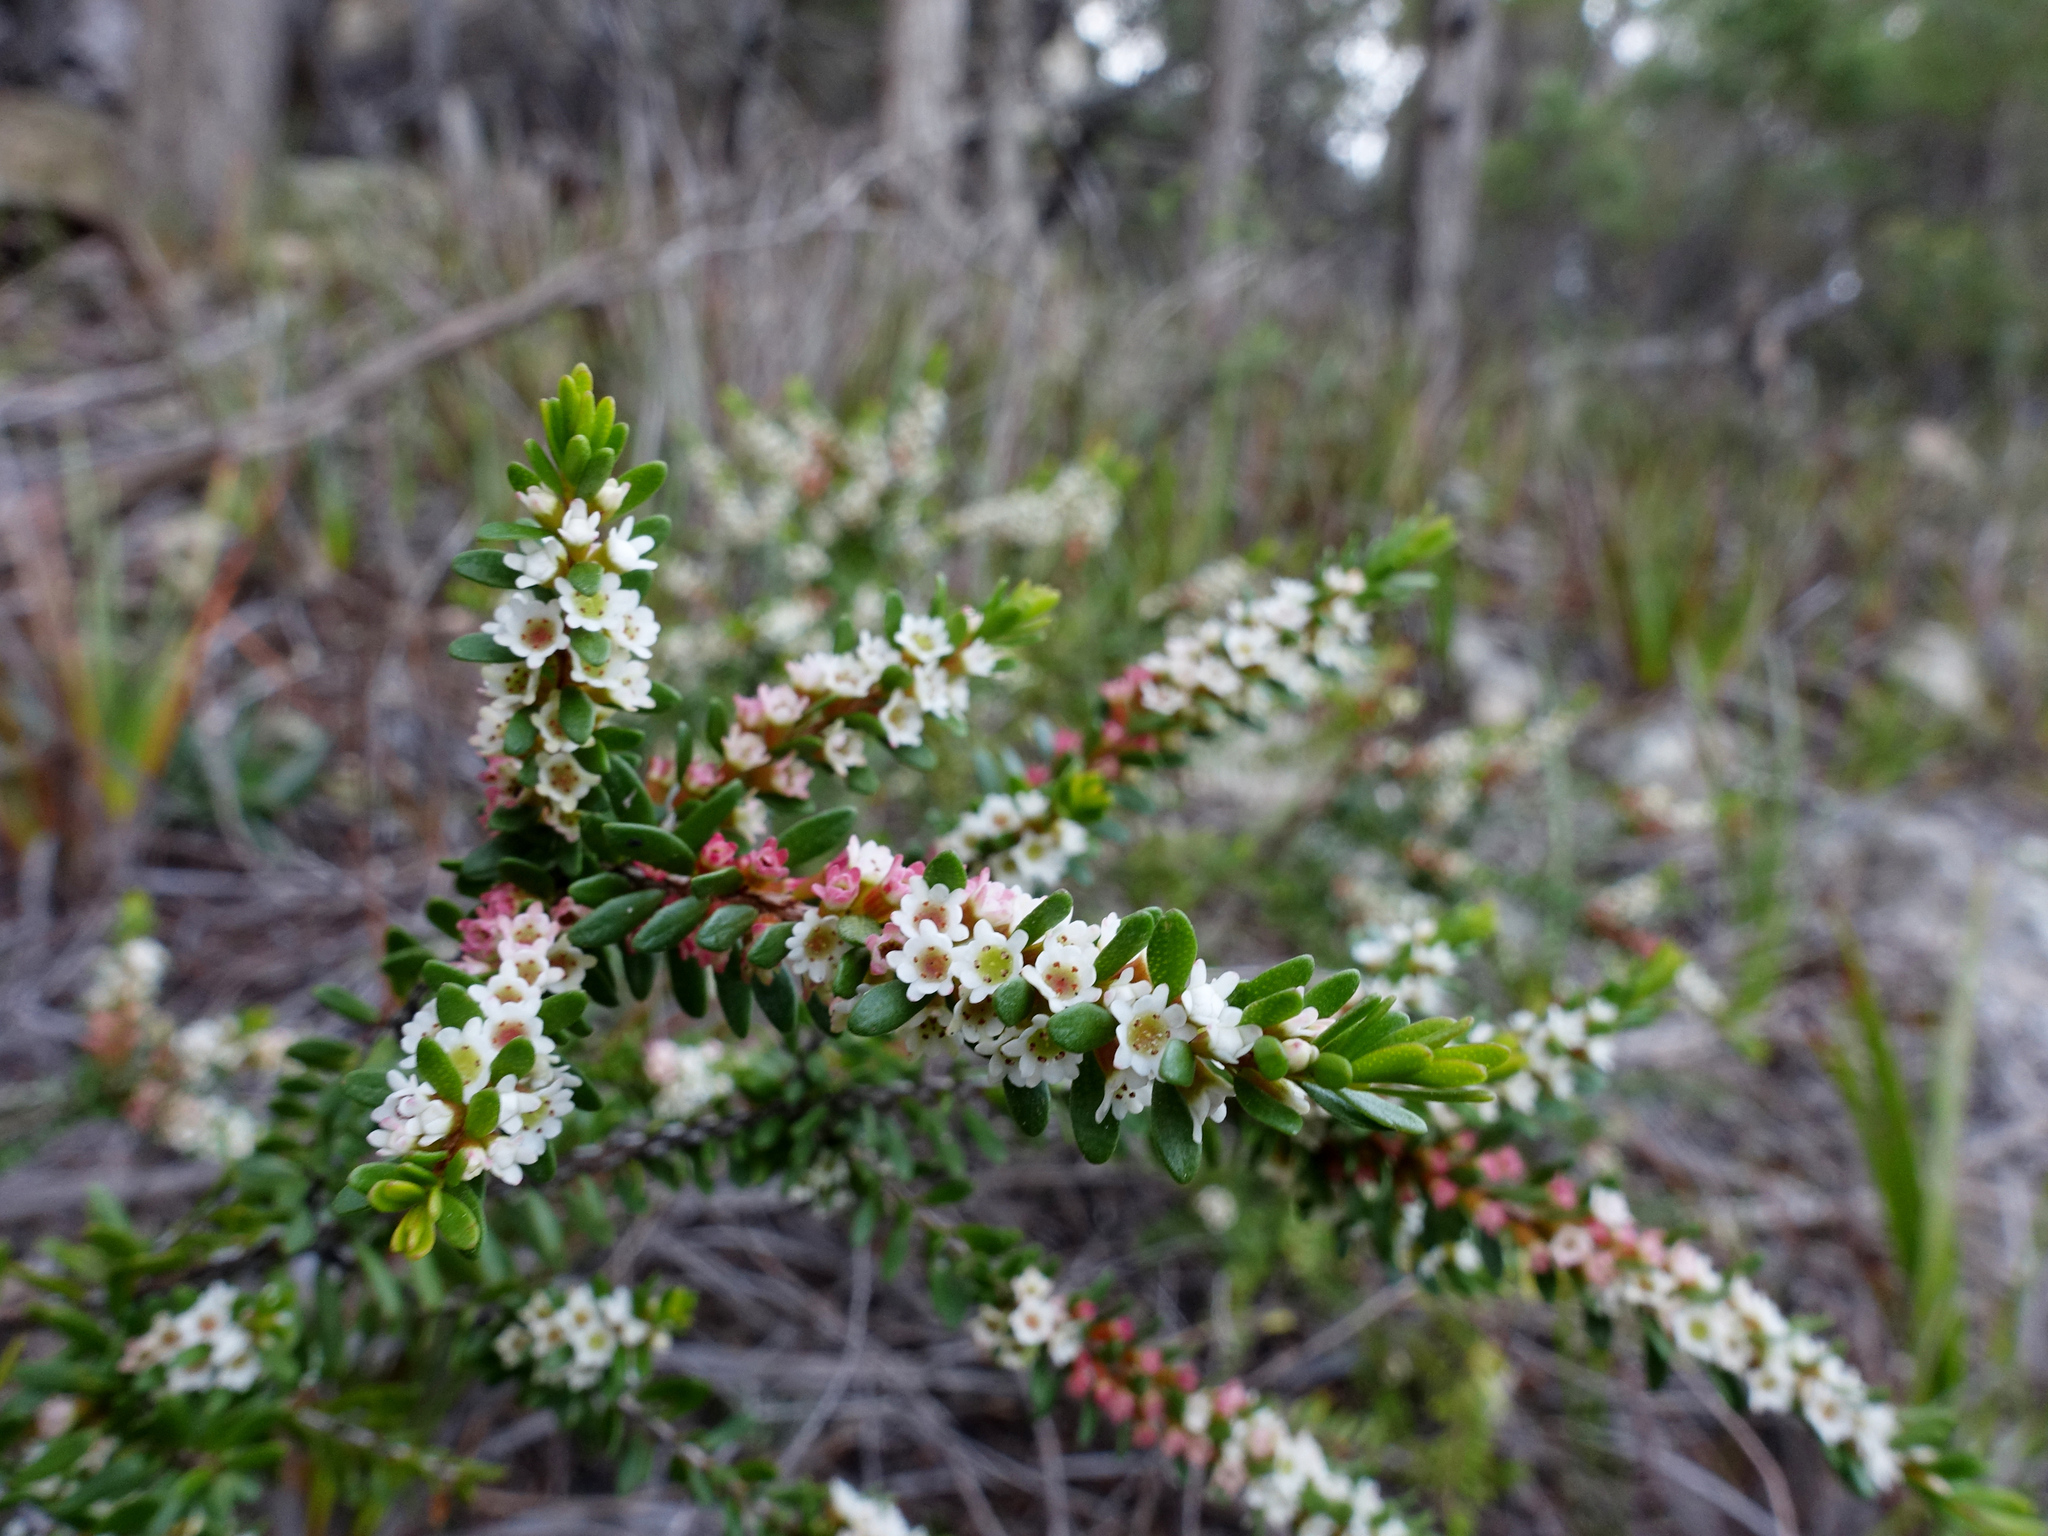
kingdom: Plantae
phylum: Tracheophyta
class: Magnoliopsida
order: Myrtales
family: Myrtaceae
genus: Thryptomene
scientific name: Thryptomene micrantha
